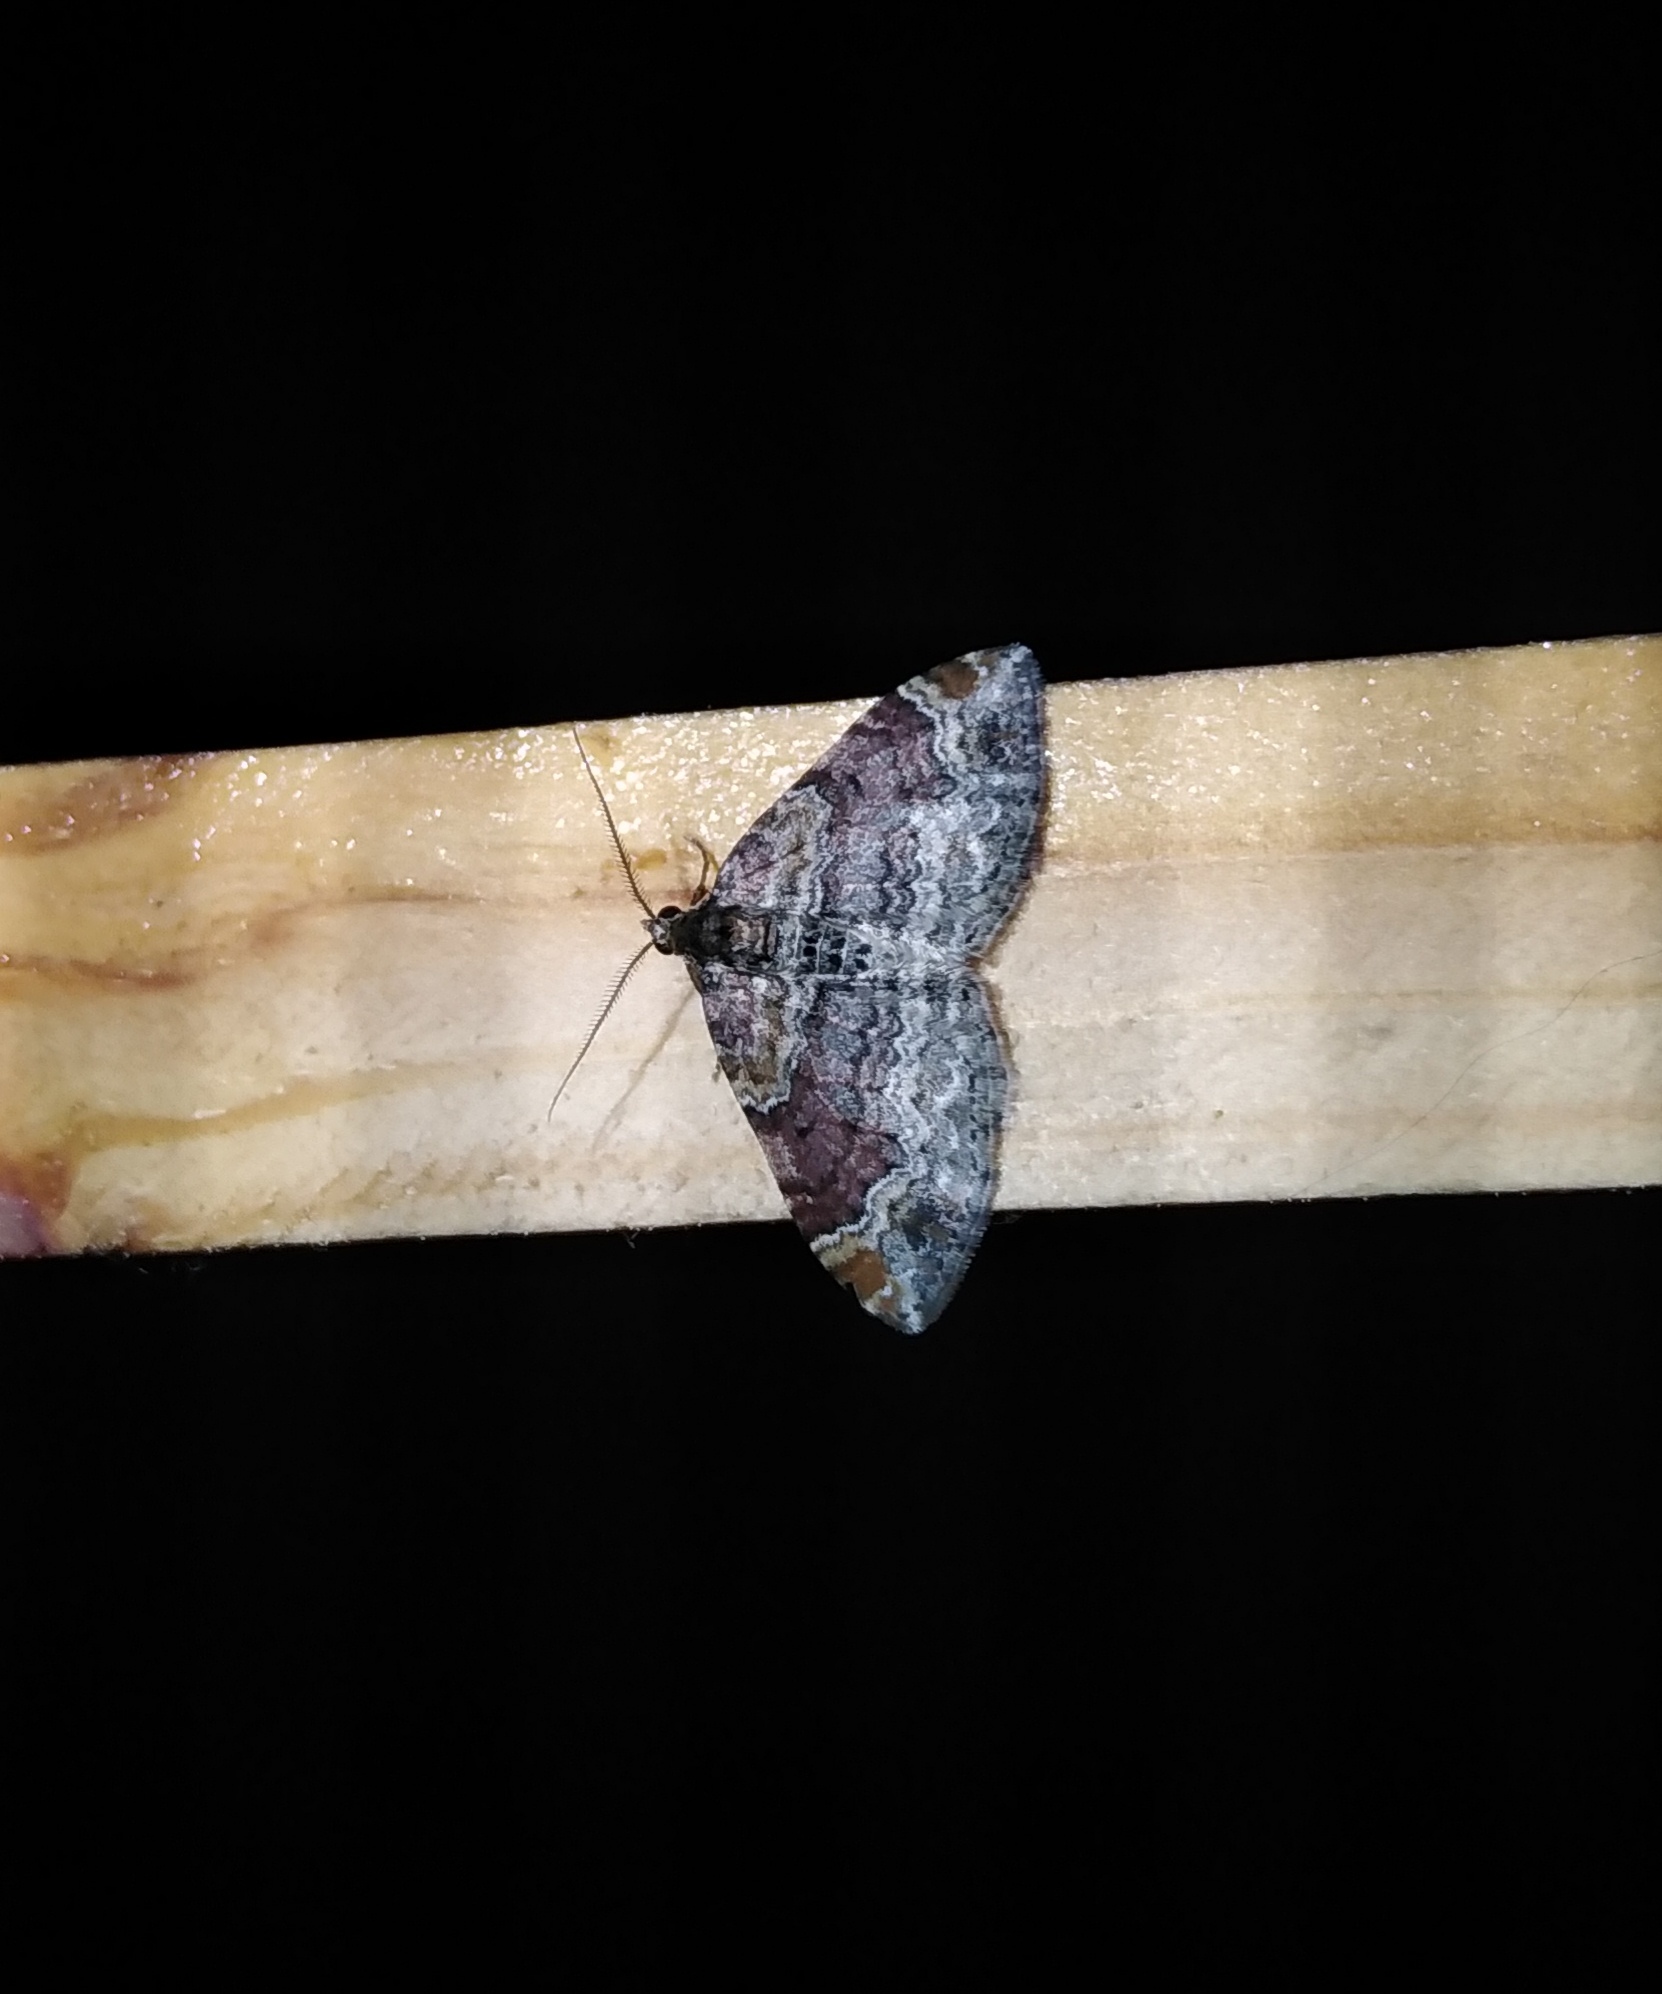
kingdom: Animalia
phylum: Arthropoda
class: Insecta
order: Lepidoptera
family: Geometridae
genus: Xanthorhoe
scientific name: Xanthorhoe ferrugata
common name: Dark-barred twin-spot carpet
